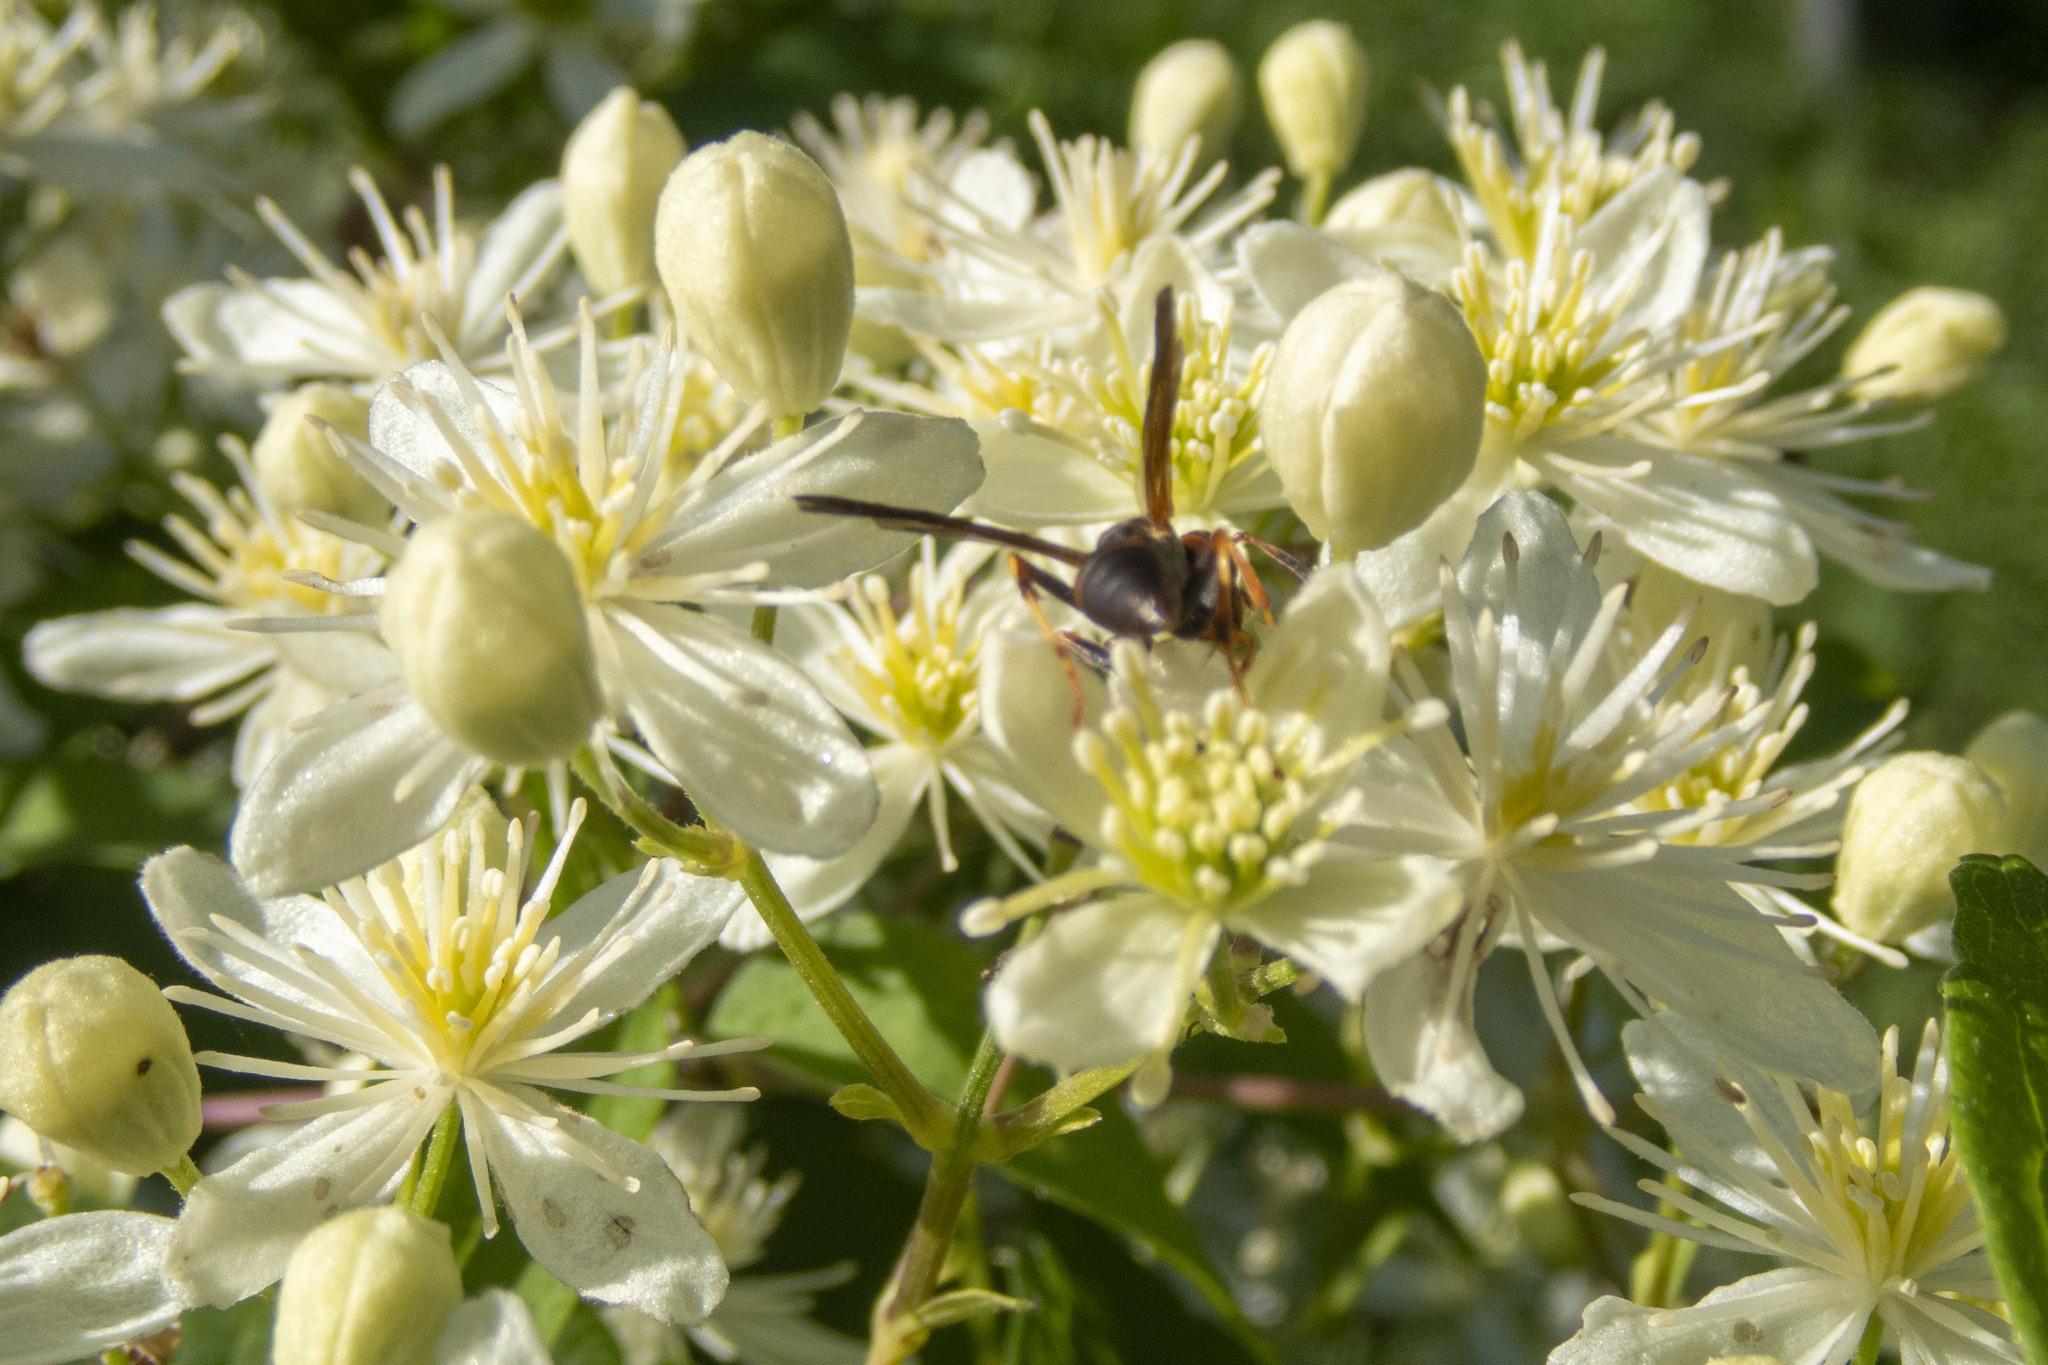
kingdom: Animalia
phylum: Arthropoda
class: Insecta
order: Hymenoptera
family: Eumenidae
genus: Polistes
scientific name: Polistes fuscatus
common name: Dark paper wasp
